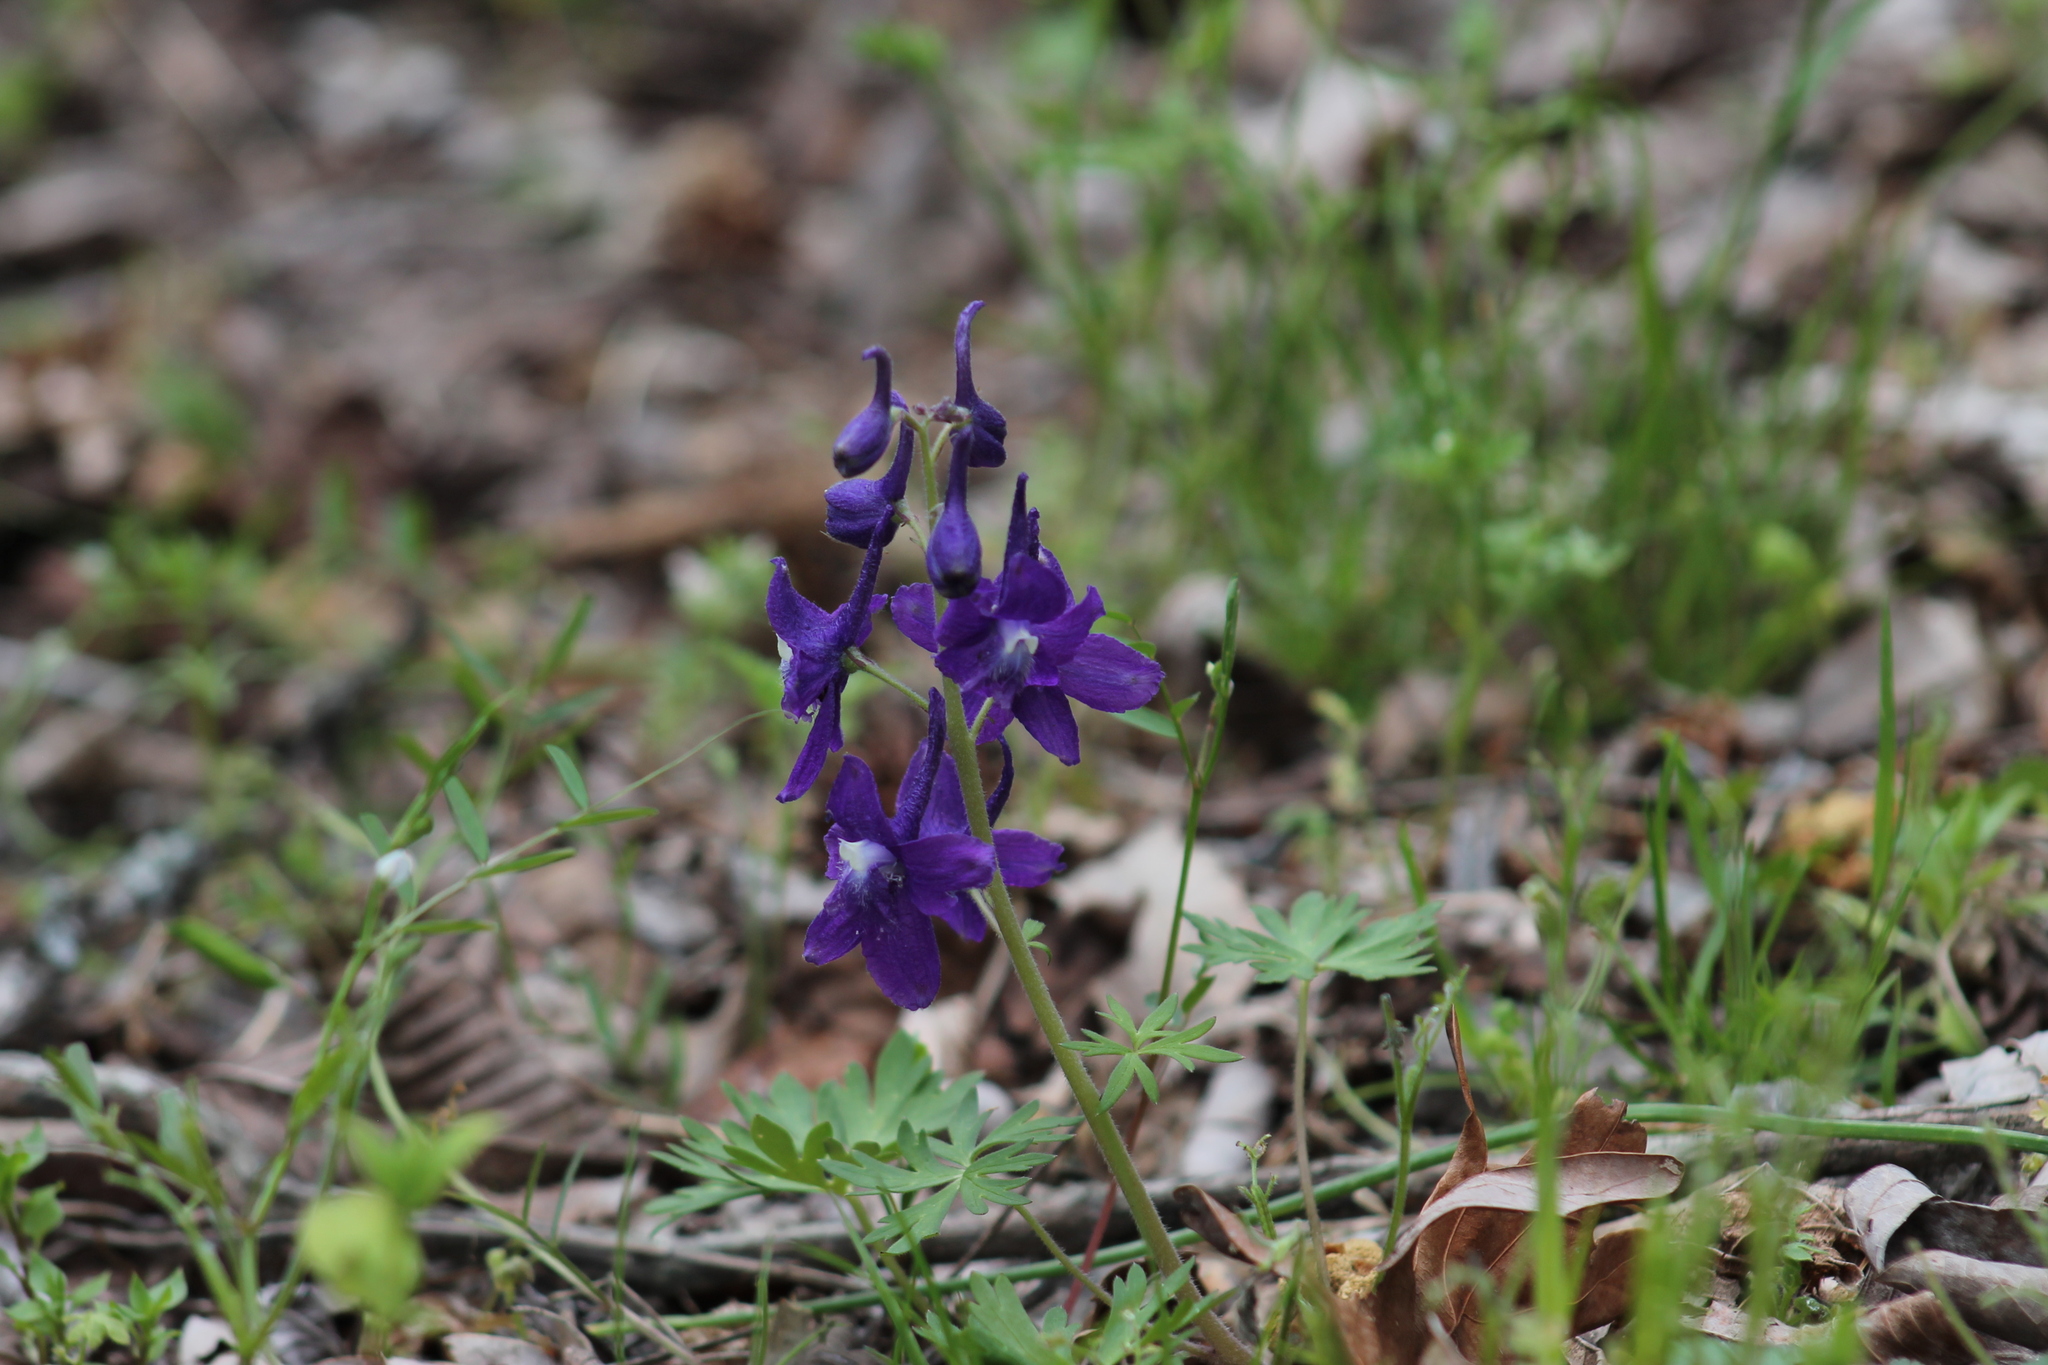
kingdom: Plantae
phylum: Tracheophyta
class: Magnoliopsida
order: Ranunculales
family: Ranunculaceae
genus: Delphinium
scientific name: Delphinium tricorne
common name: Dwarf larkspur
